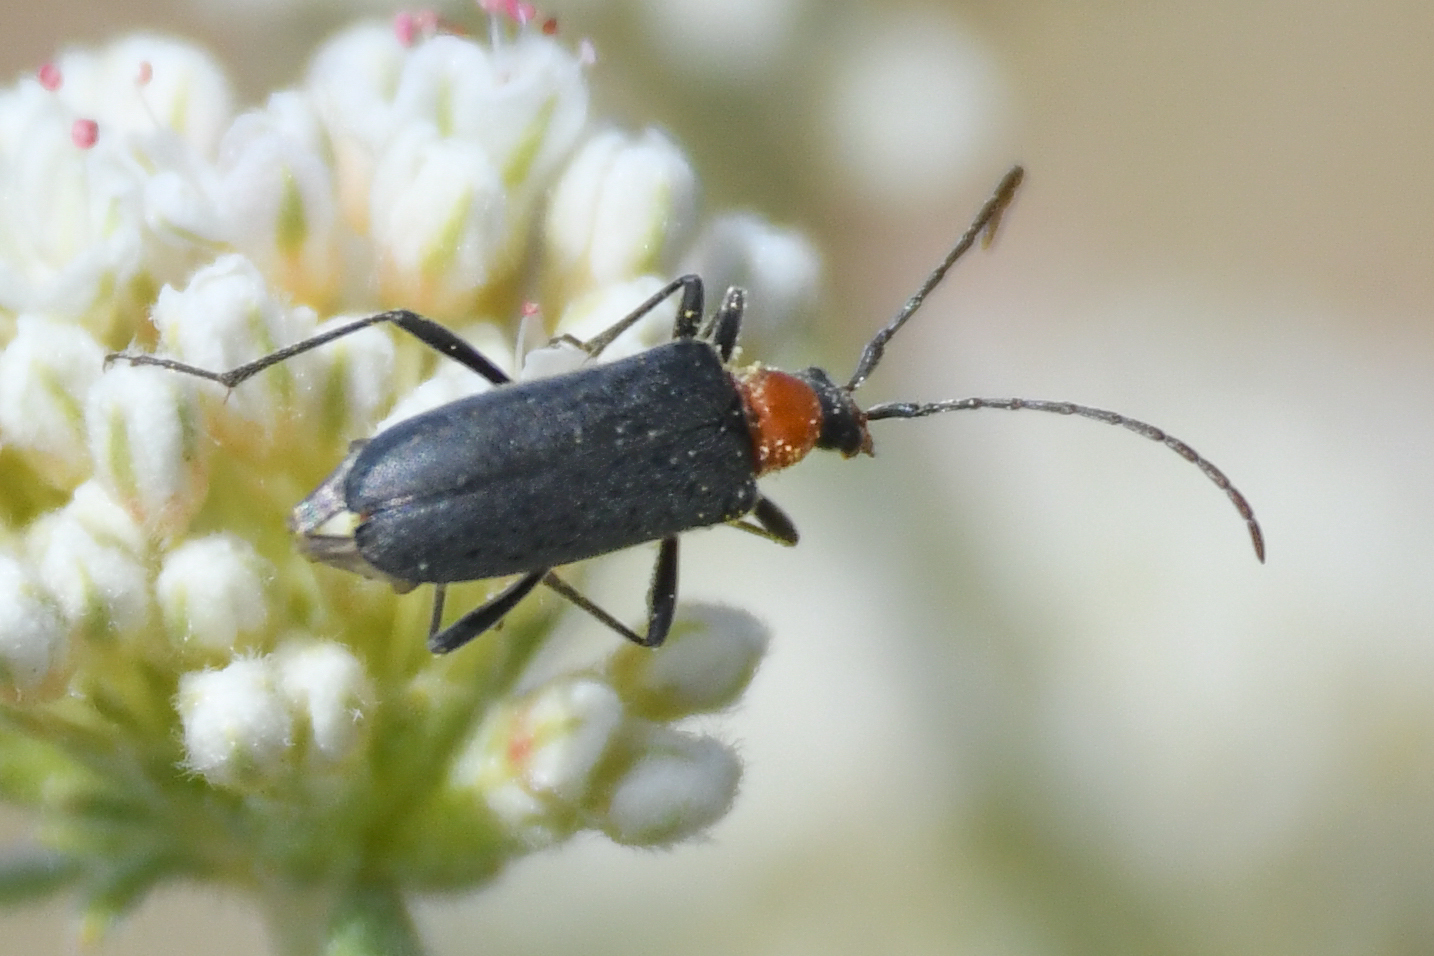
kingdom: Animalia
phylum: Arthropoda
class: Insecta
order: Coleoptera
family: Cerambycidae
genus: Cortodera
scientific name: Cortodera falsa
